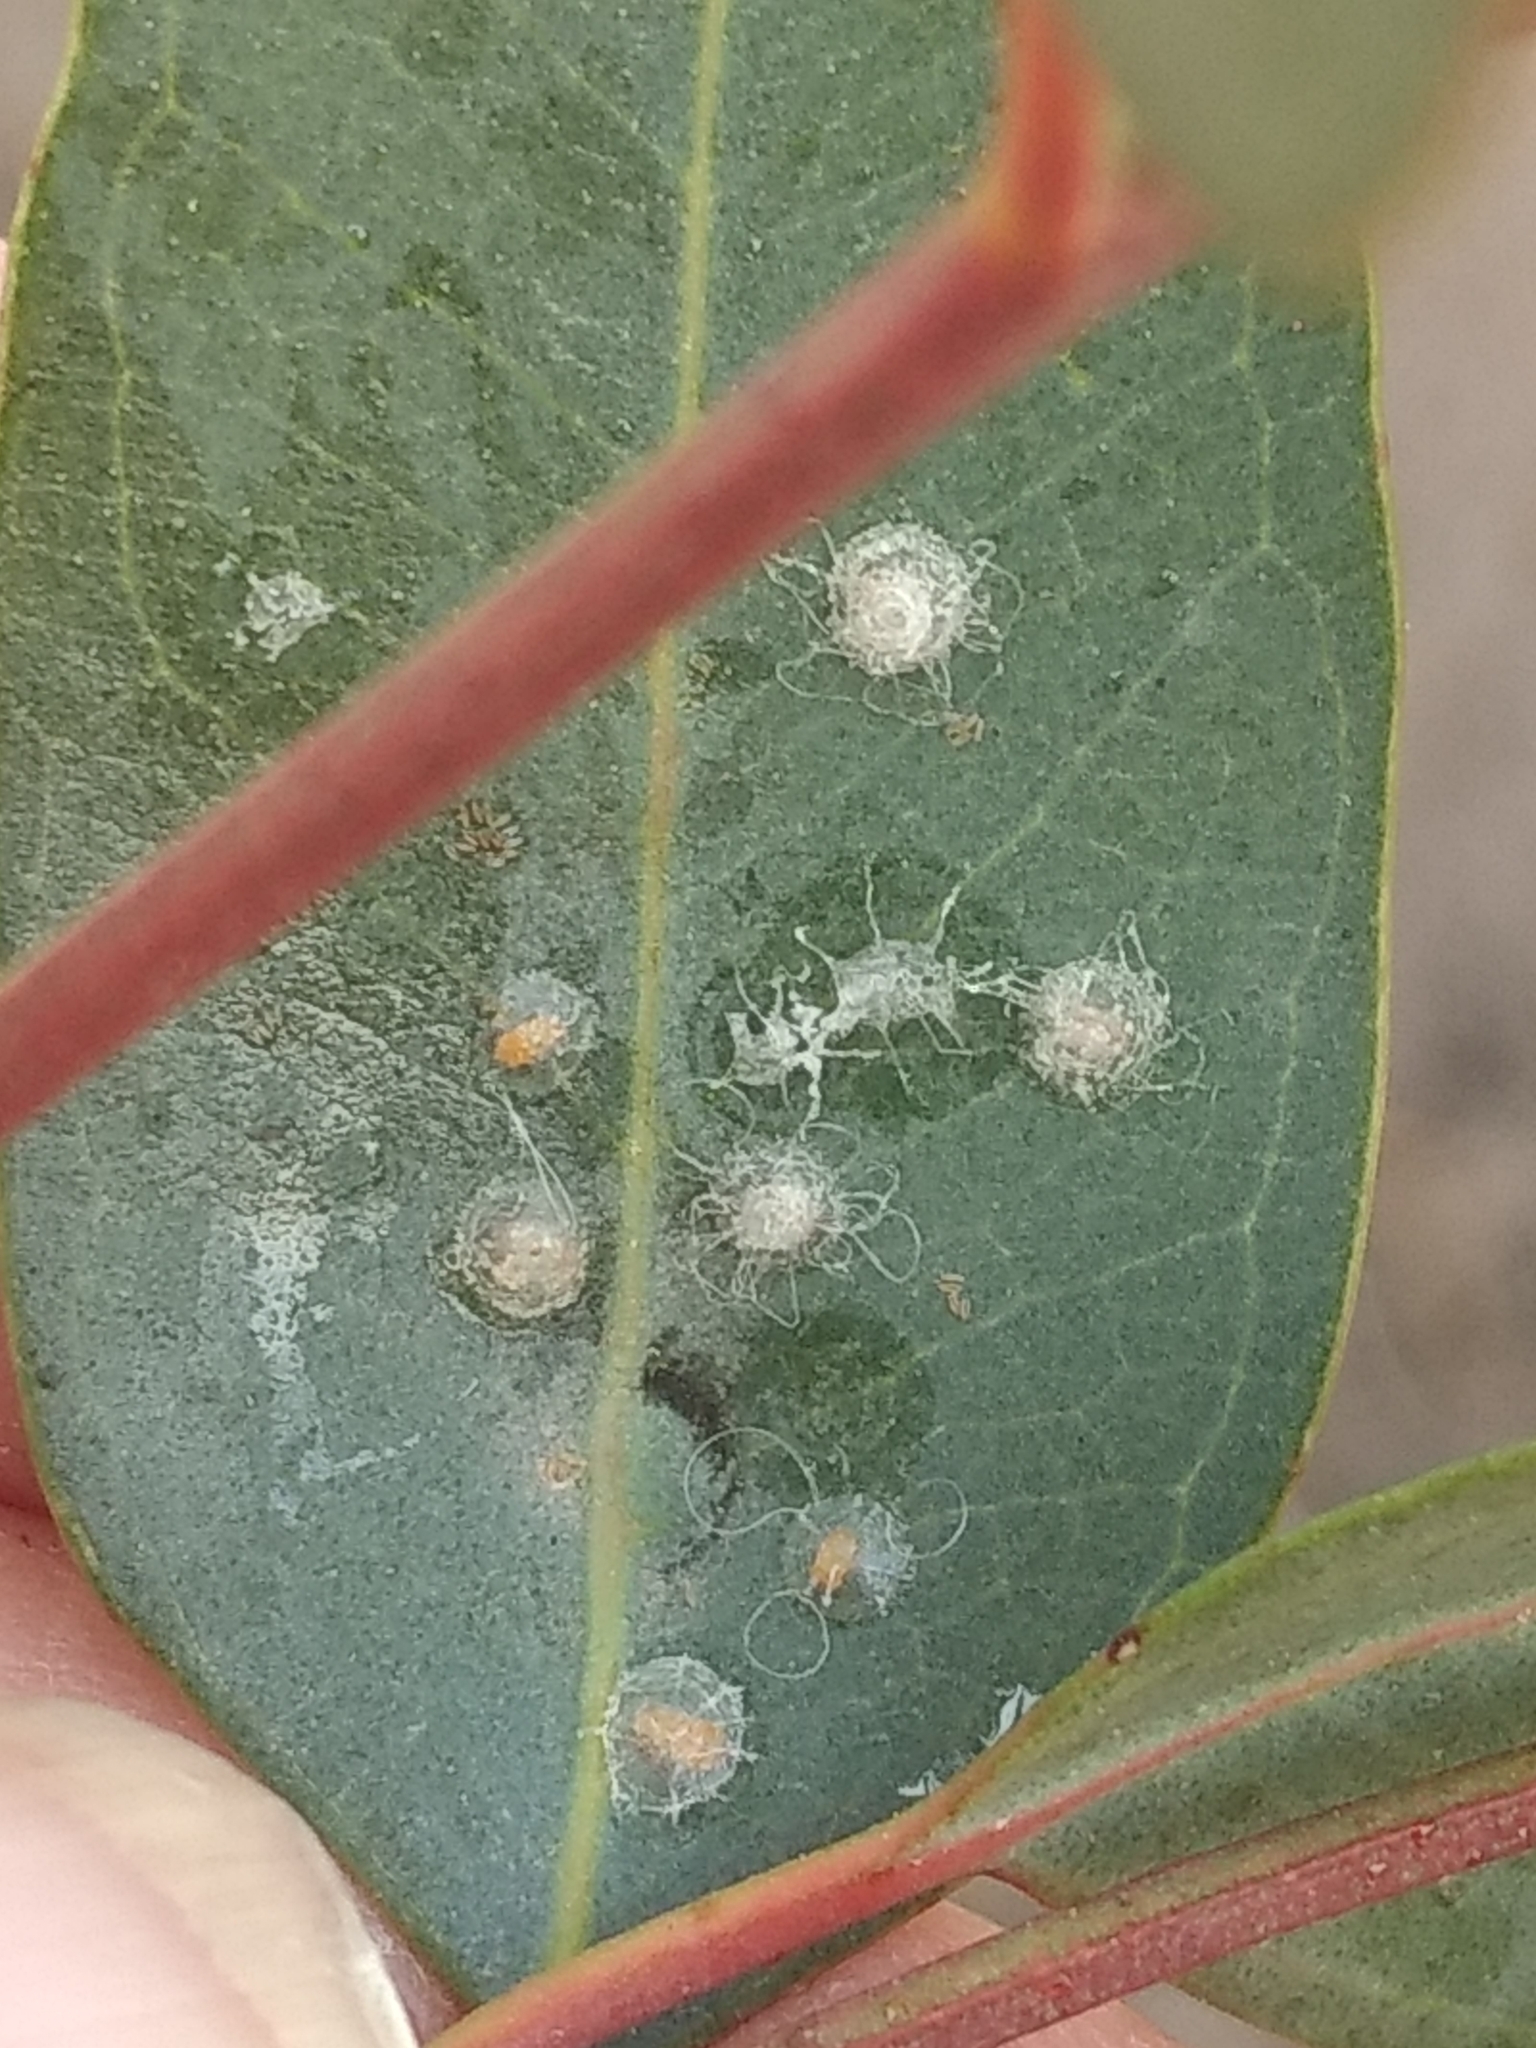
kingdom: Animalia
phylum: Arthropoda
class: Insecta
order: Hemiptera
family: Aphalaridae
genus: Glycaspis
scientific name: Glycaspis brimblecombei
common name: Red gum lerp psyllid
